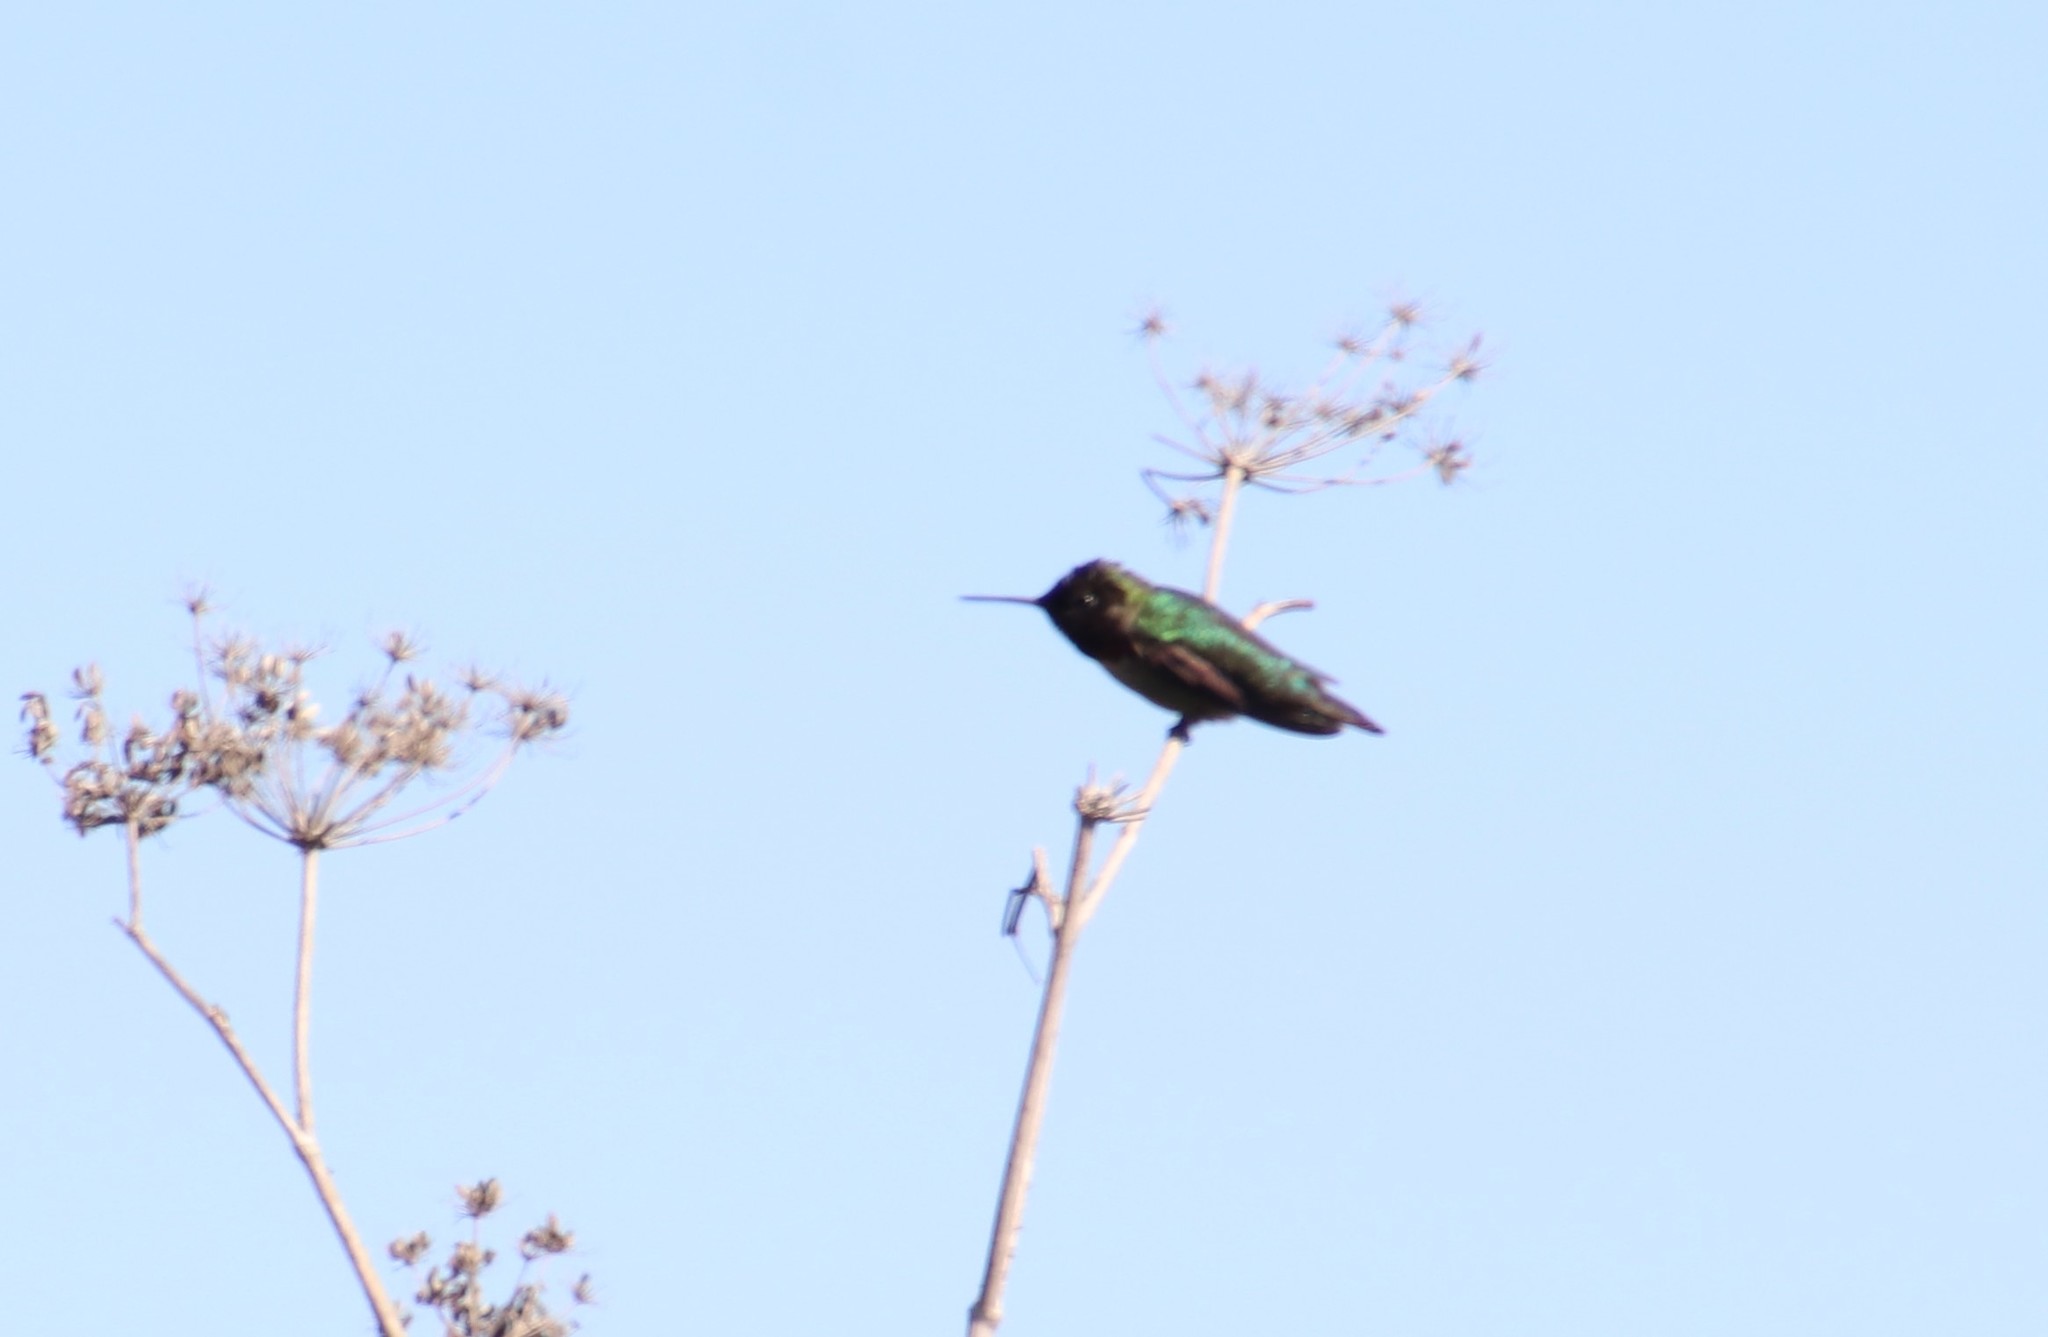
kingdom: Animalia
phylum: Chordata
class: Aves
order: Apodiformes
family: Trochilidae
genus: Calypte
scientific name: Calypte anna
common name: Anna's hummingbird
